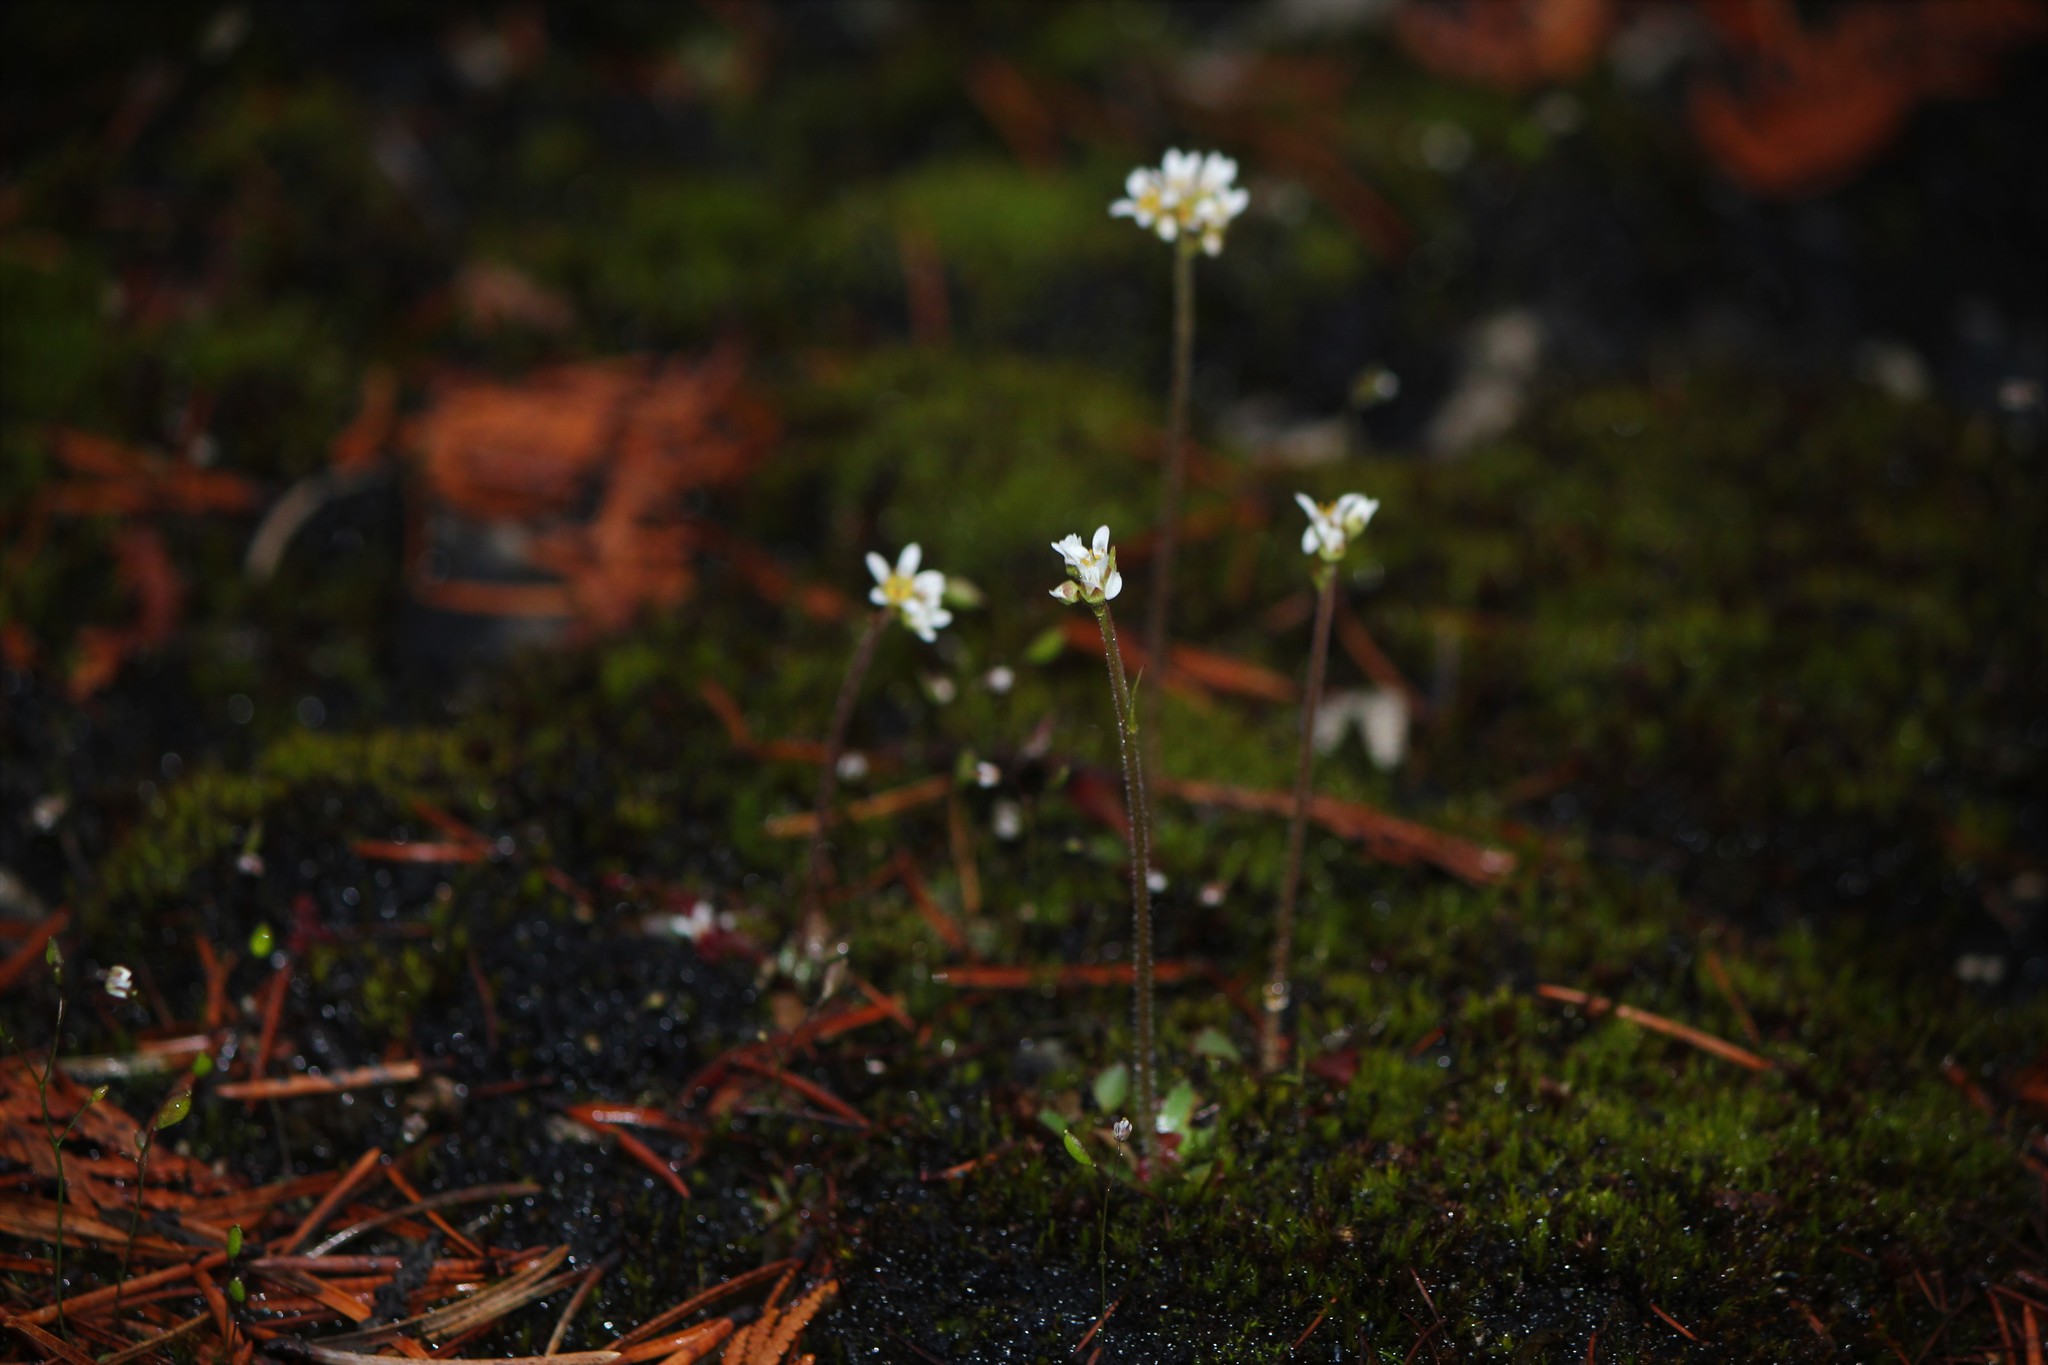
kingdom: Plantae
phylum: Tracheophyta
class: Magnoliopsida
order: Saxifragales
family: Saxifragaceae
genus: Micranthes
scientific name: Micranthes virginiensis
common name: Early saxifrage
